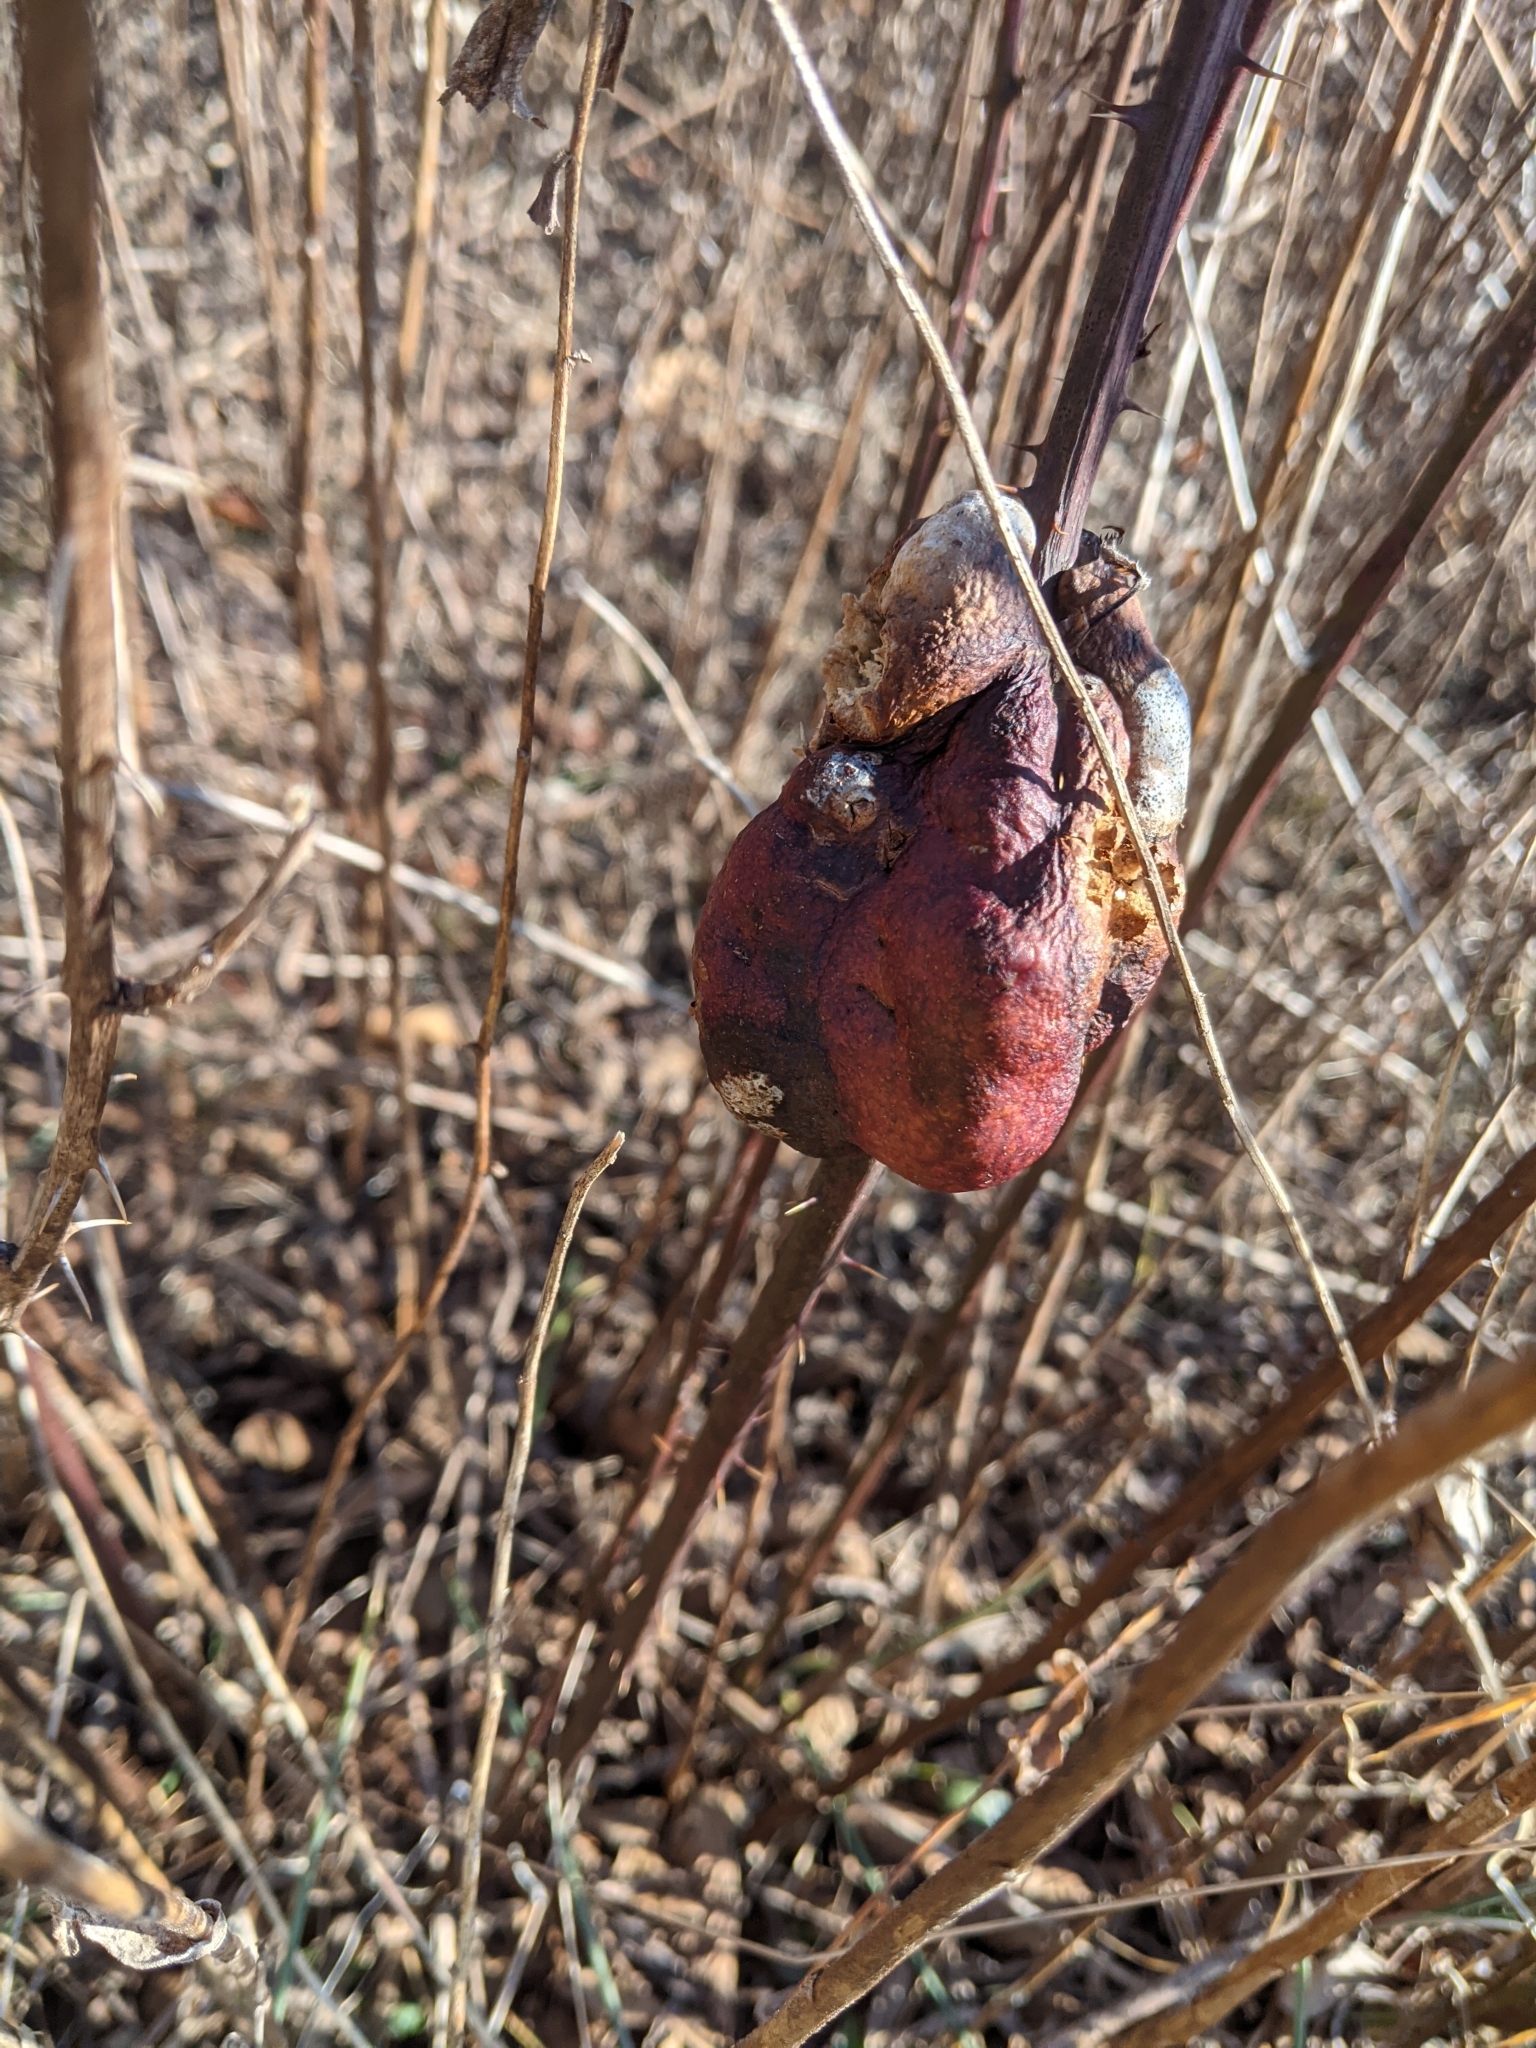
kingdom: Animalia
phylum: Arthropoda
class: Insecta
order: Hymenoptera
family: Cynipidae
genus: Diastrophus
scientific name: Diastrophus
